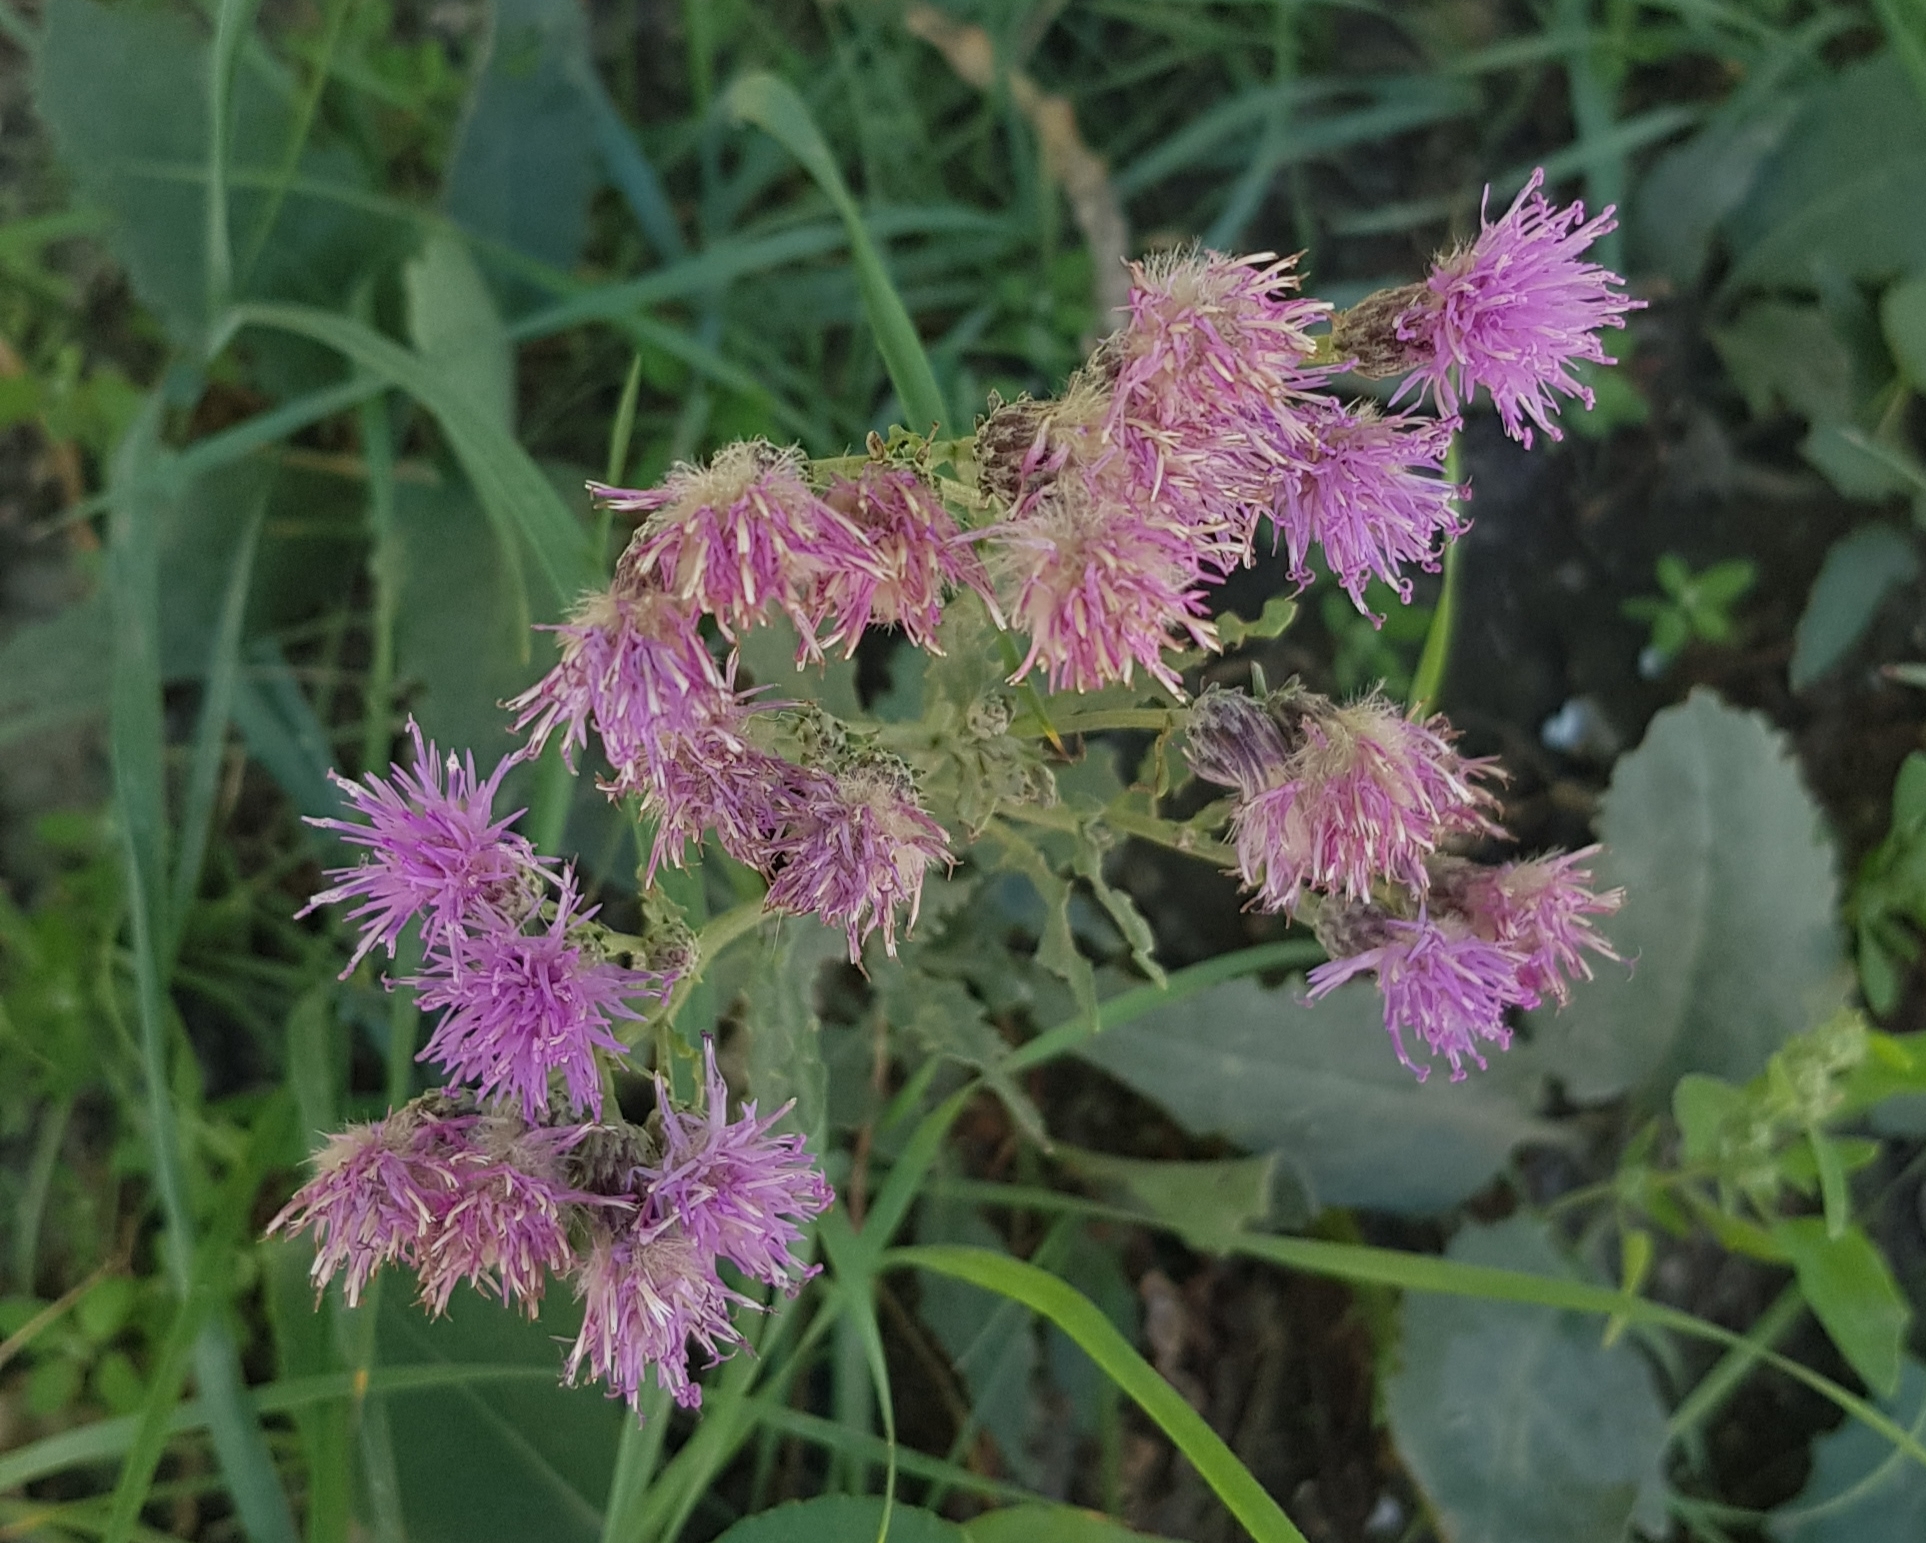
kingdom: Plantae
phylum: Tracheophyta
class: Magnoliopsida
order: Asterales
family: Asteraceae
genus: Saussurea
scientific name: Saussurea amara
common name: Alberta sawwort
